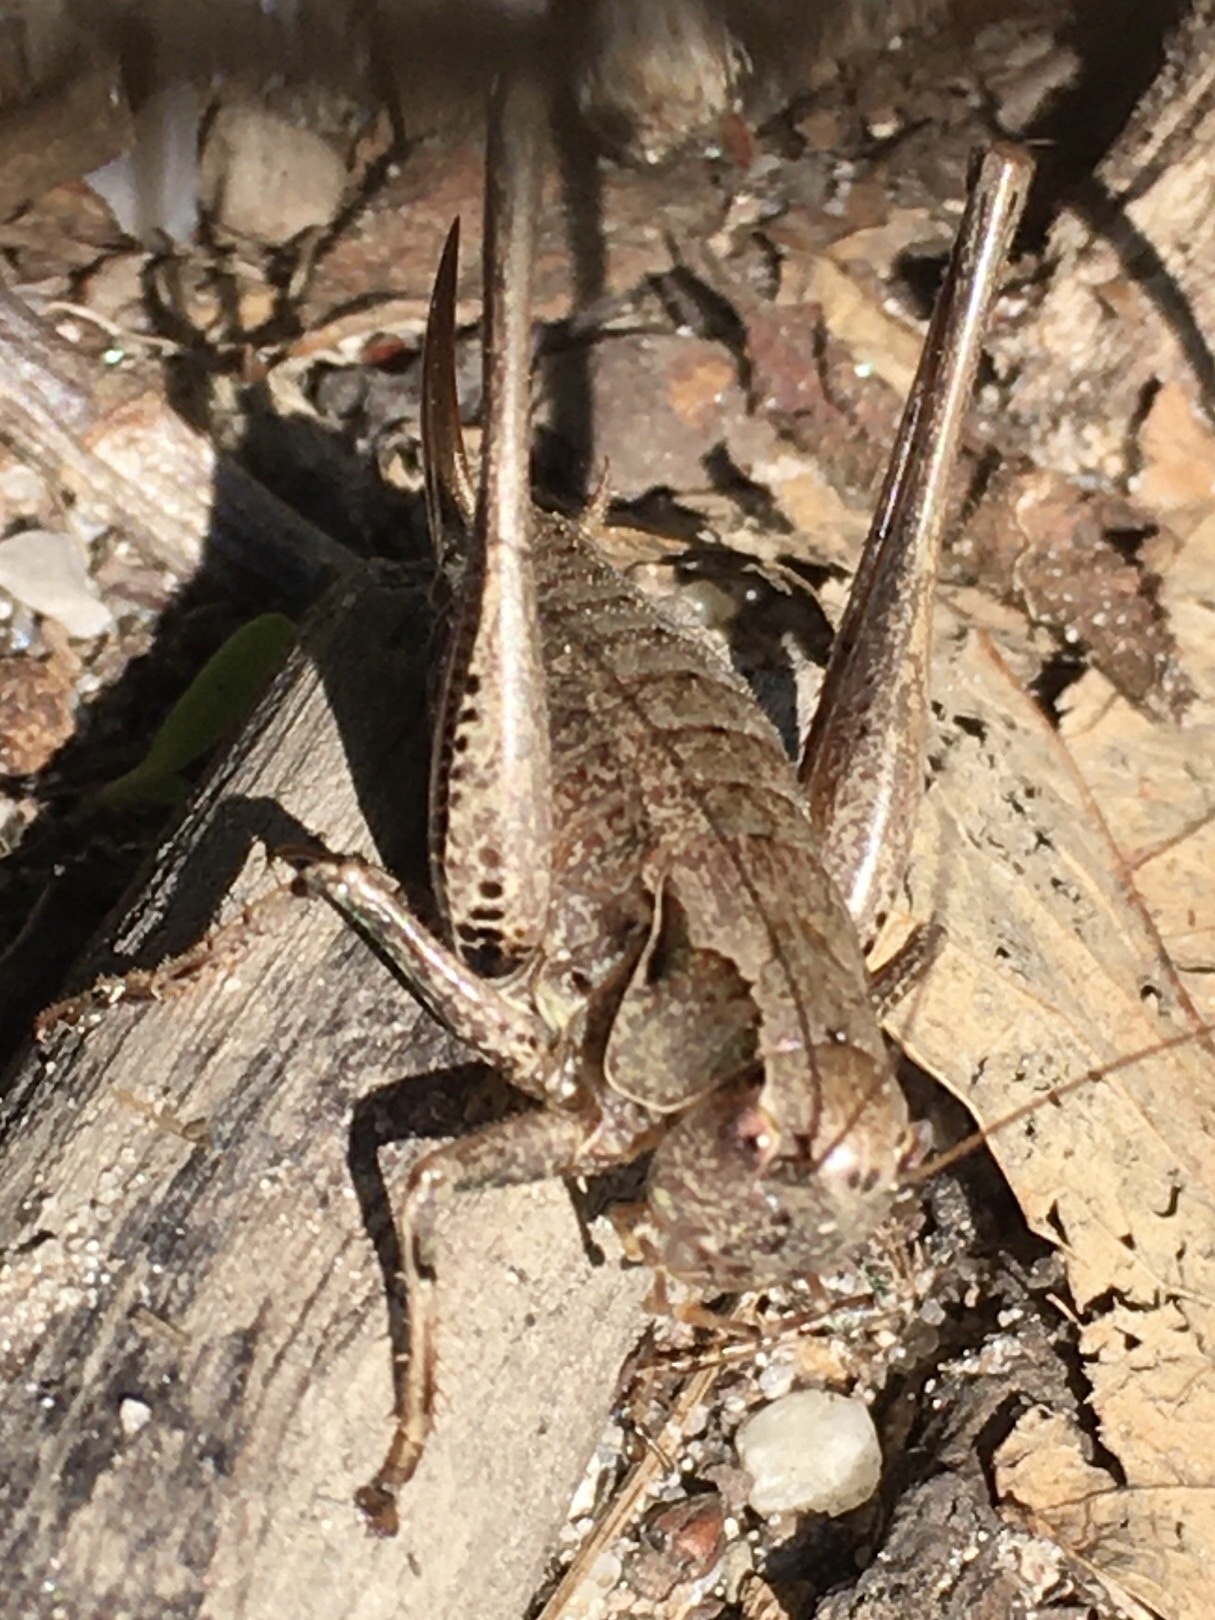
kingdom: Animalia
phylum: Arthropoda
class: Insecta
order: Orthoptera
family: Tettigoniidae
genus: Pholidoptera
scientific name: Pholidoptera griseoaptera
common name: Dark bush-cricket
